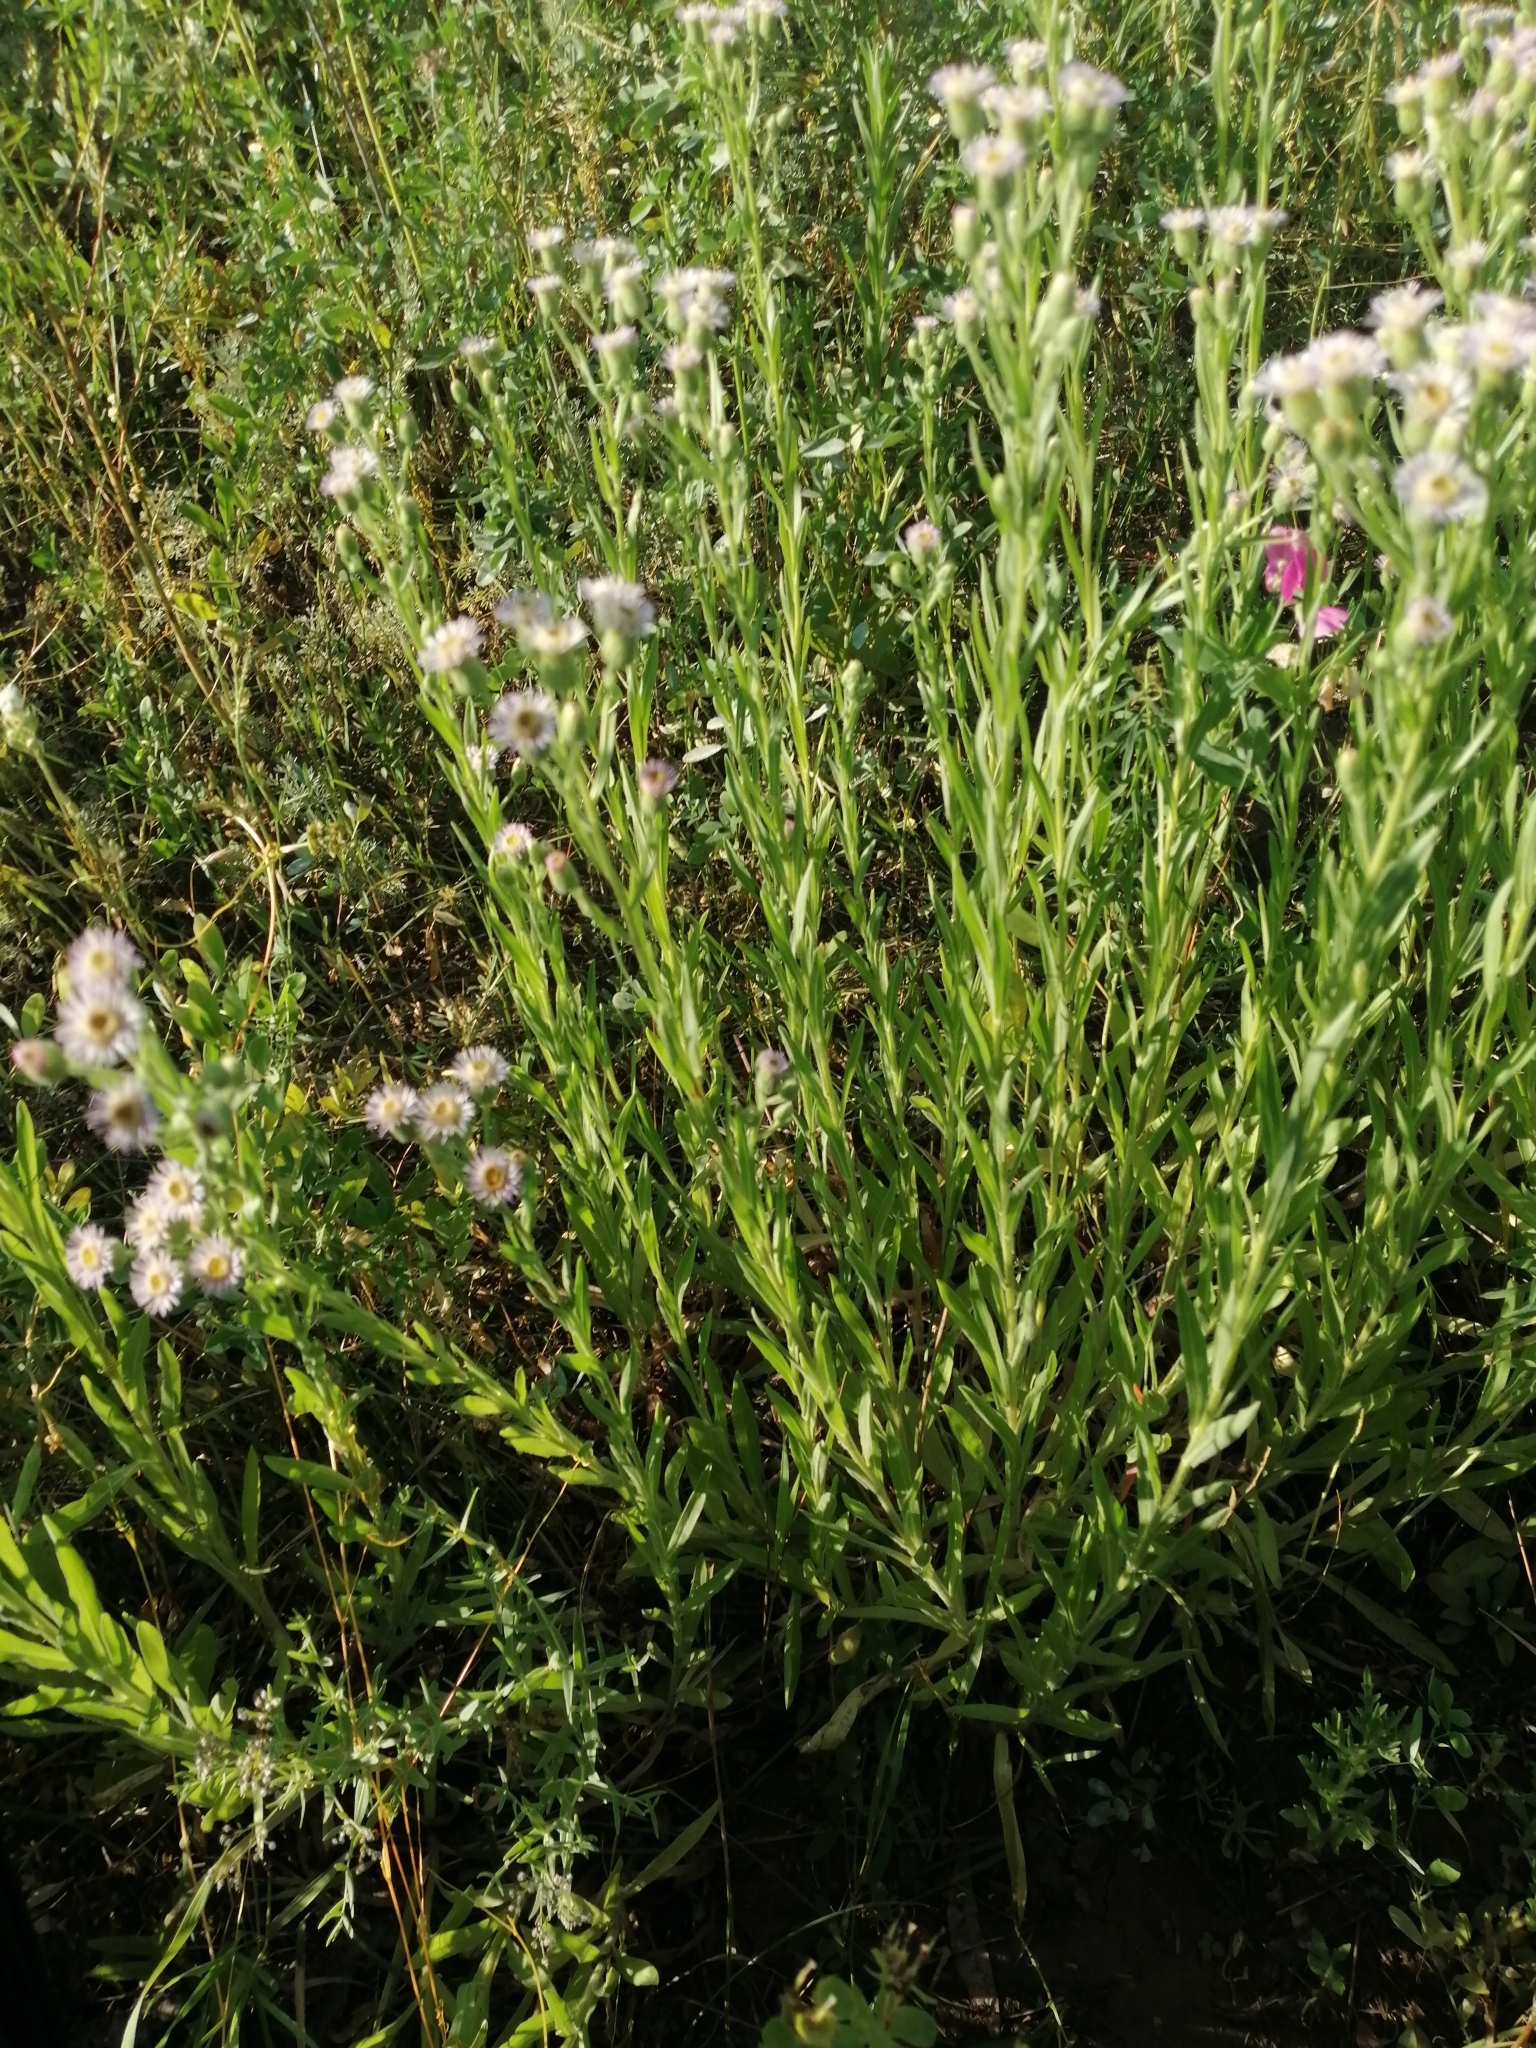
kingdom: Plantae
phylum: Tracheophyta
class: Magnoliopsida
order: Asterales
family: Asteraceae
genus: Erigeron
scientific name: Erigeron podolicus
